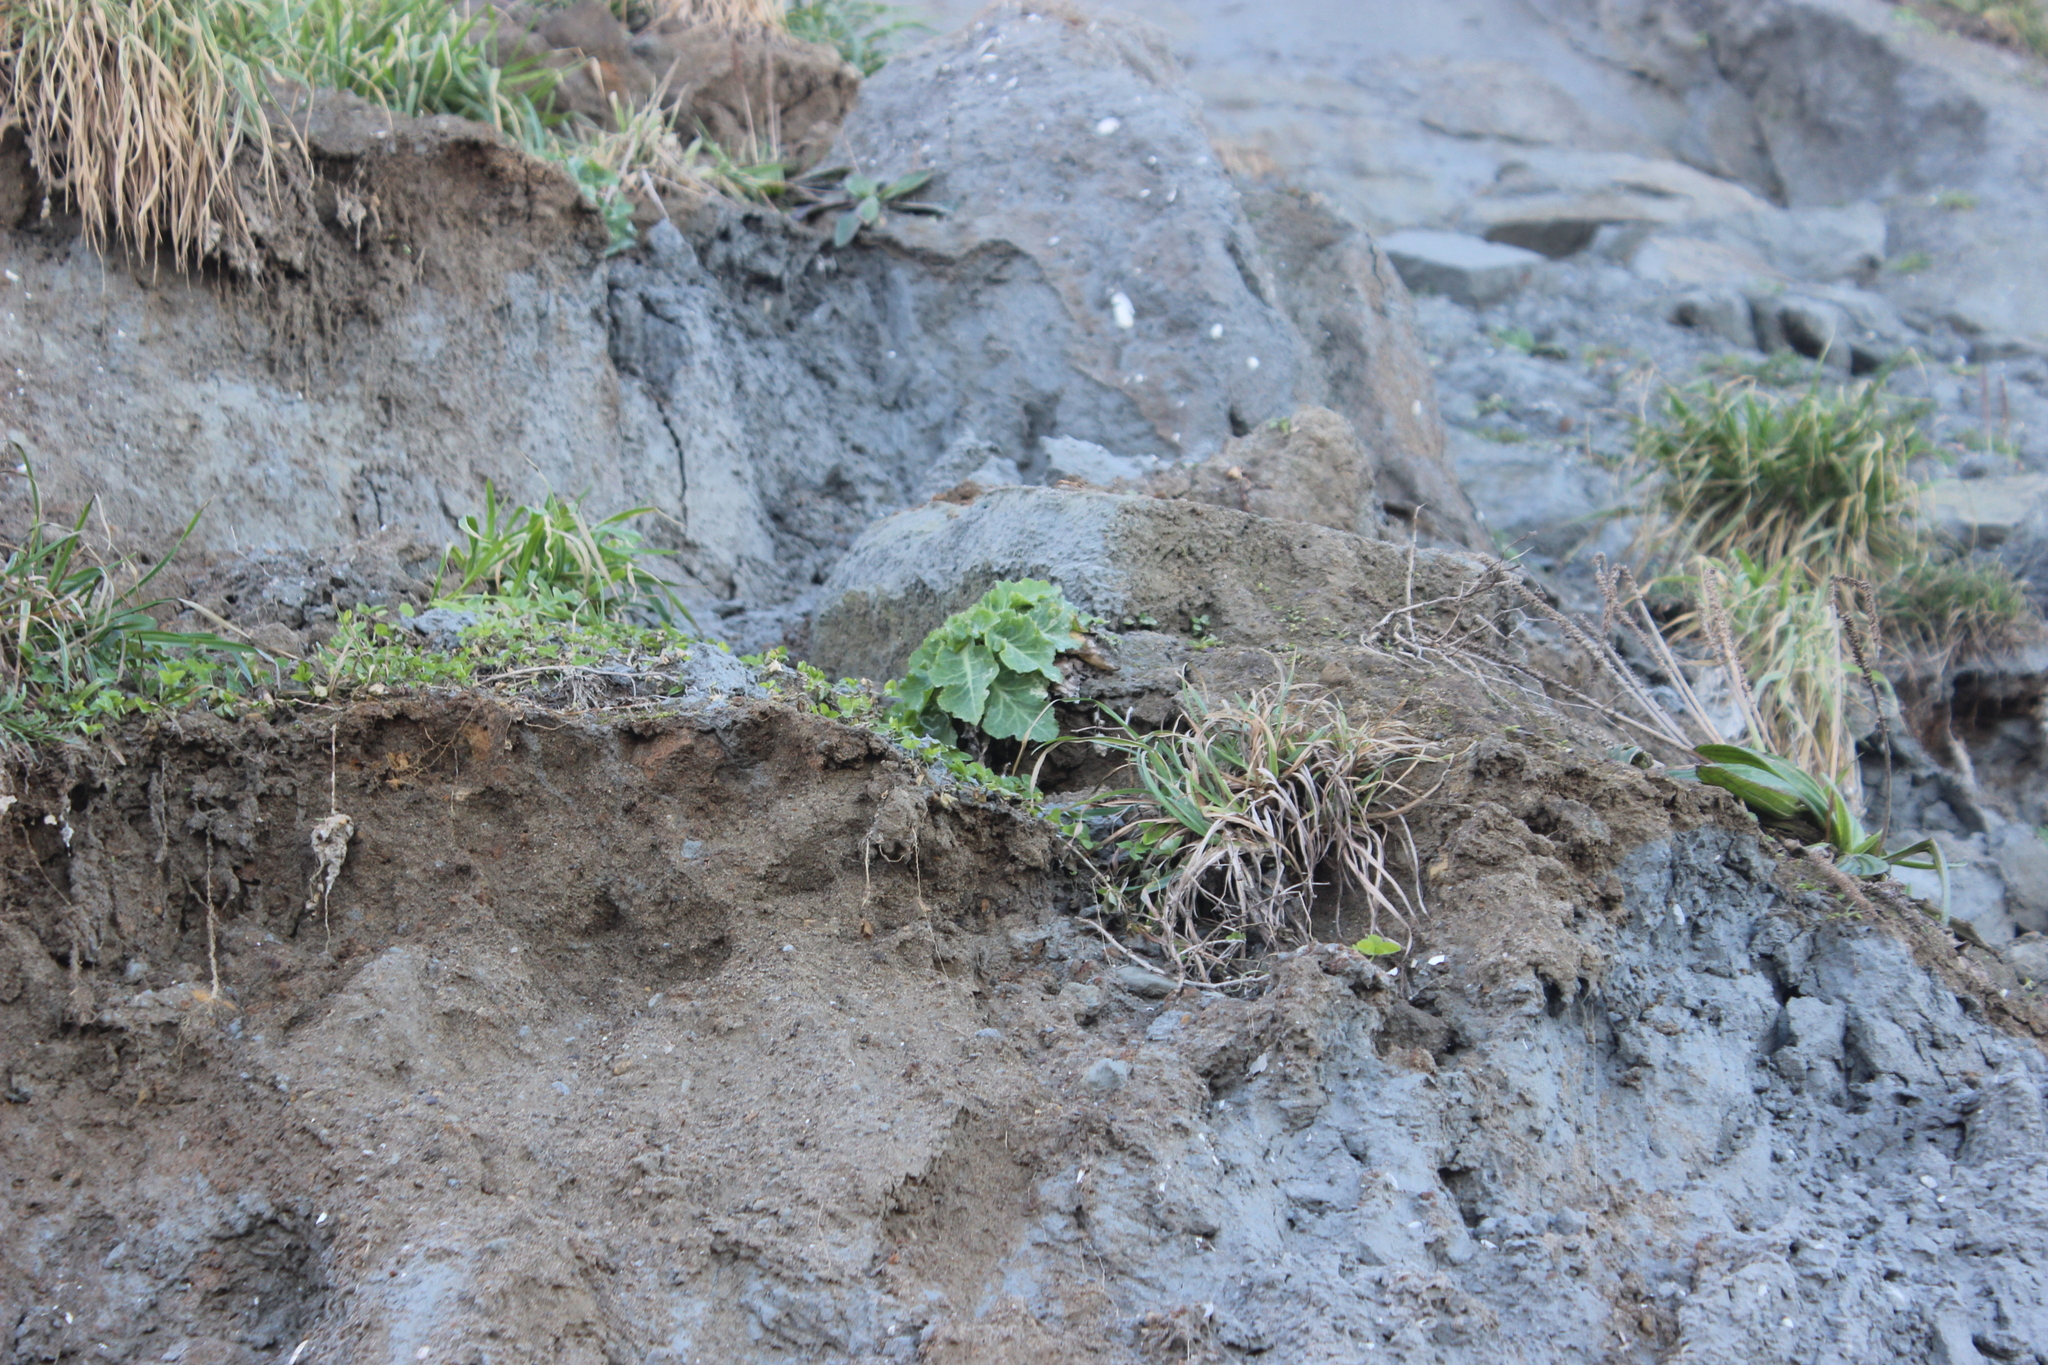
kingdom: Plantae
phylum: Tracheophyta
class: Magnoliopsida
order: Asterales
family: Asteraceae
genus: Sonchus
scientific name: Sonchus kirkii
